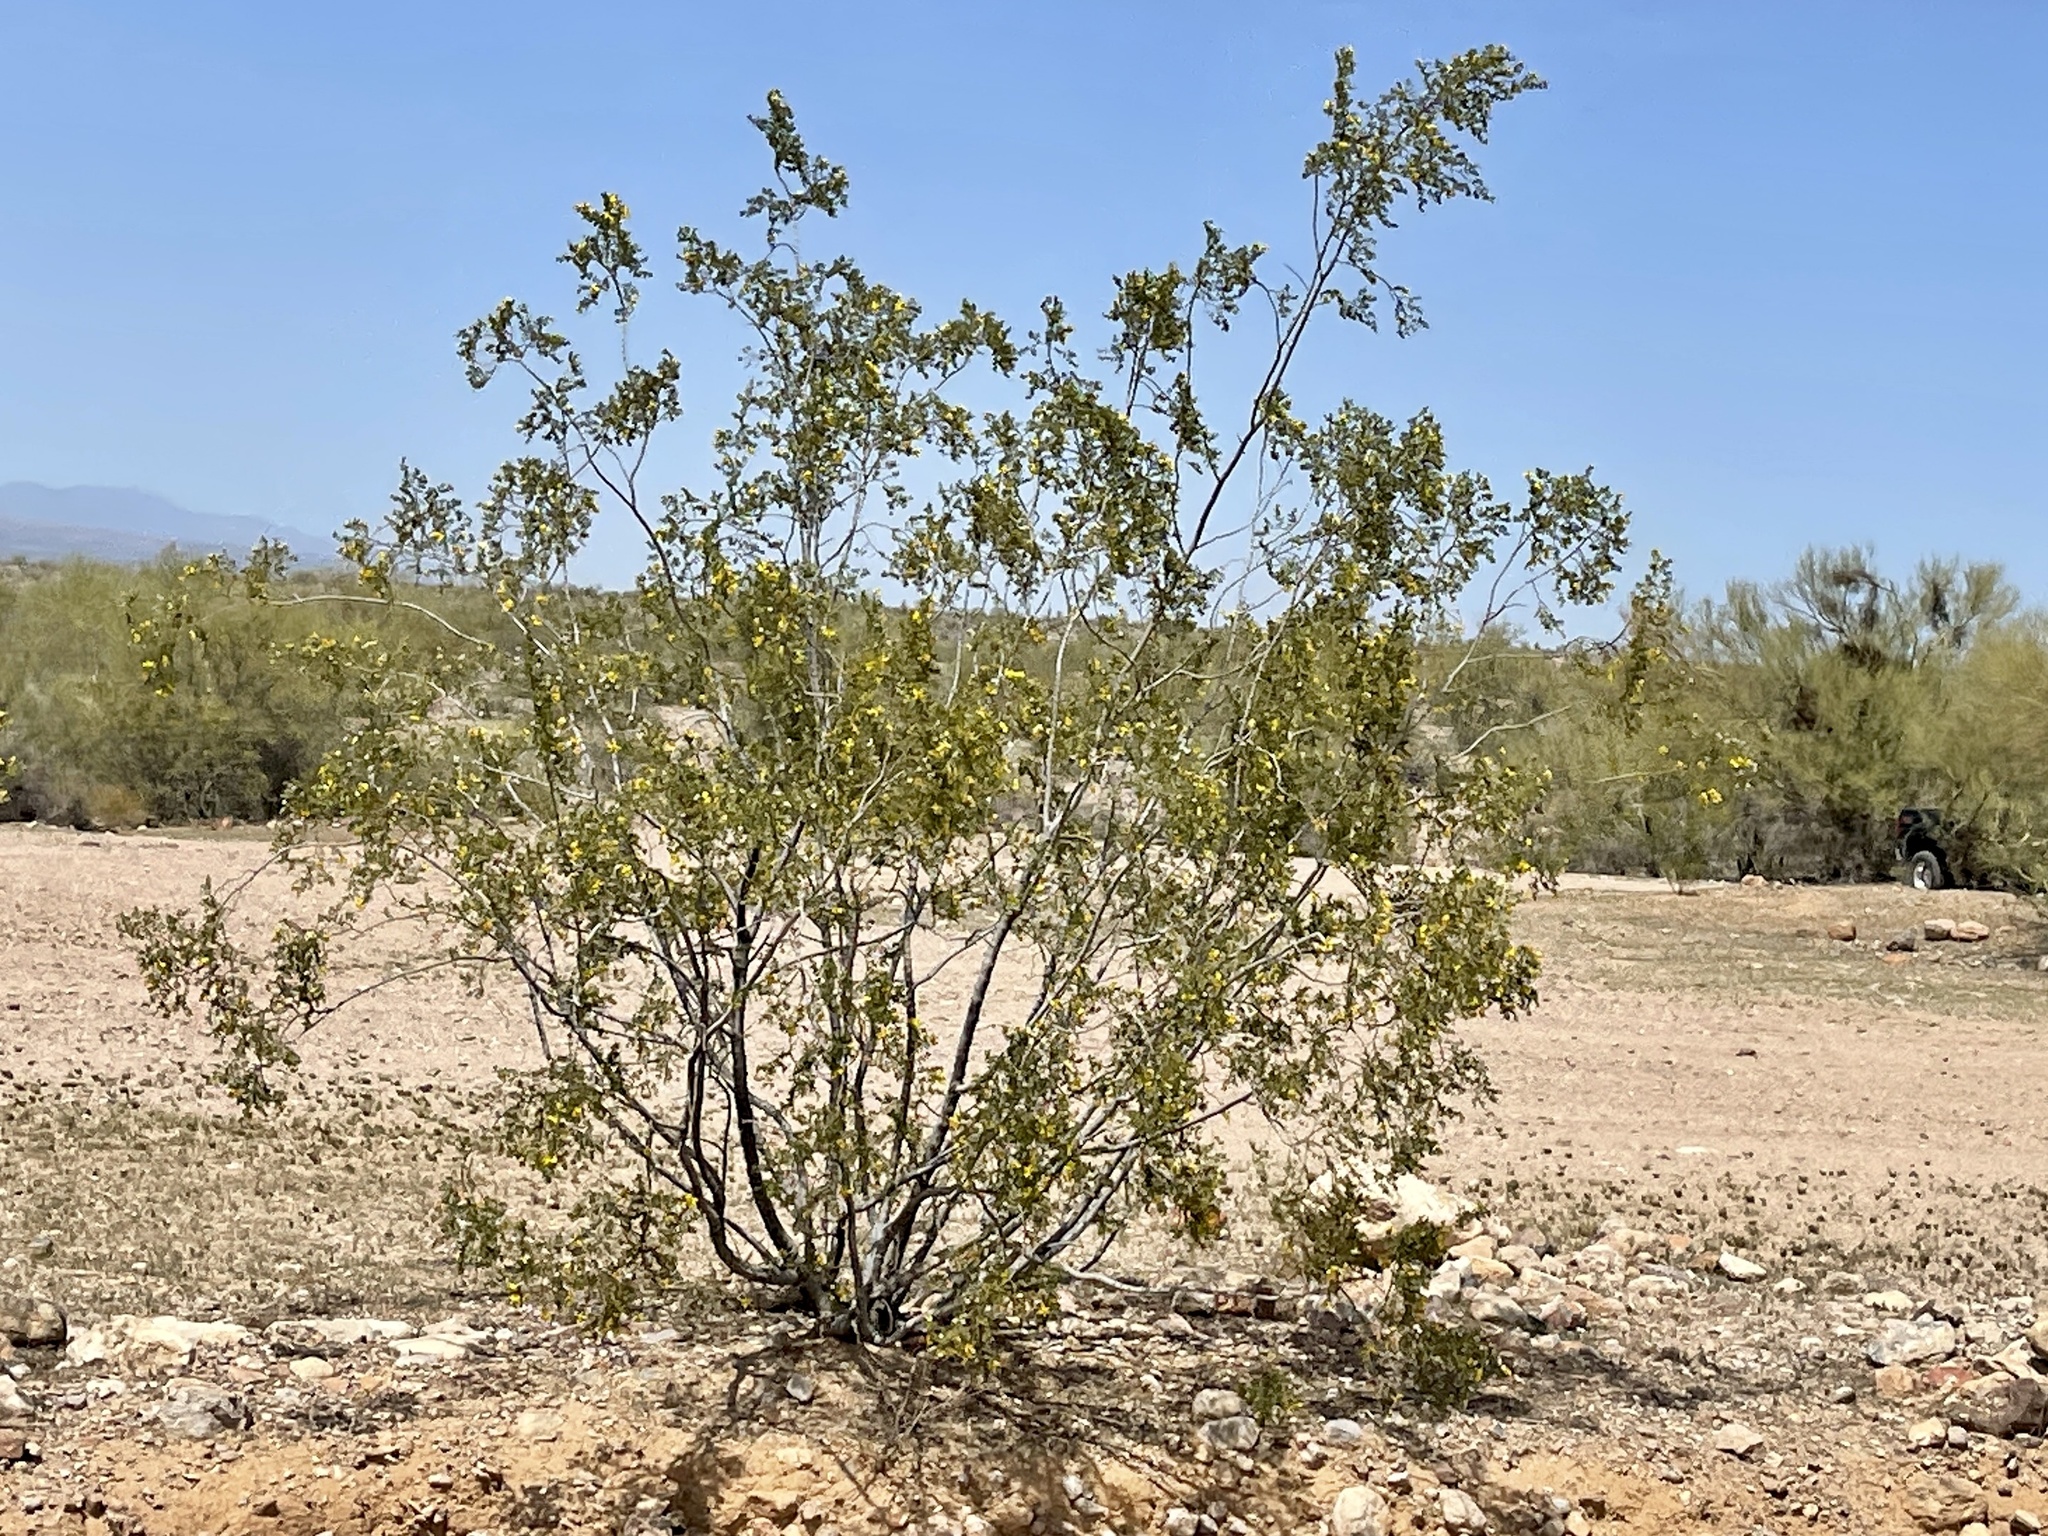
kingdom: Plantae
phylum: Tracheophyta
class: Magnoliopsida
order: Zygophyllales
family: Zygophyllaceae
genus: Larrea
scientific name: Larrea tridentata
